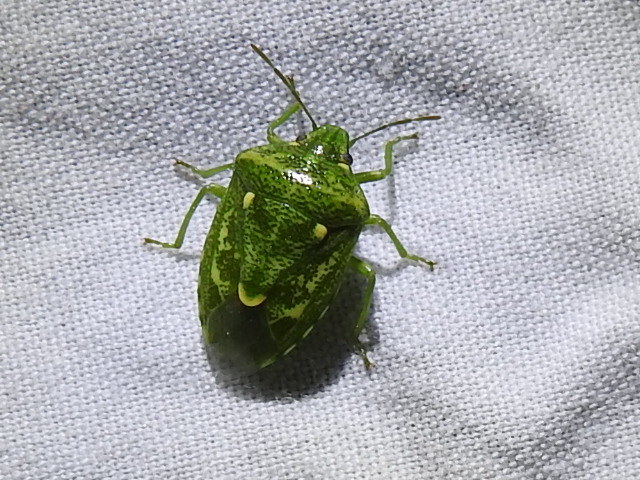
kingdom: Animalia
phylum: Arthropoda
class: Insecta
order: Hemiptera
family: Pentatomidae
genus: Banasa
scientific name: Banasa euchlora
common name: Cedar berry bug
